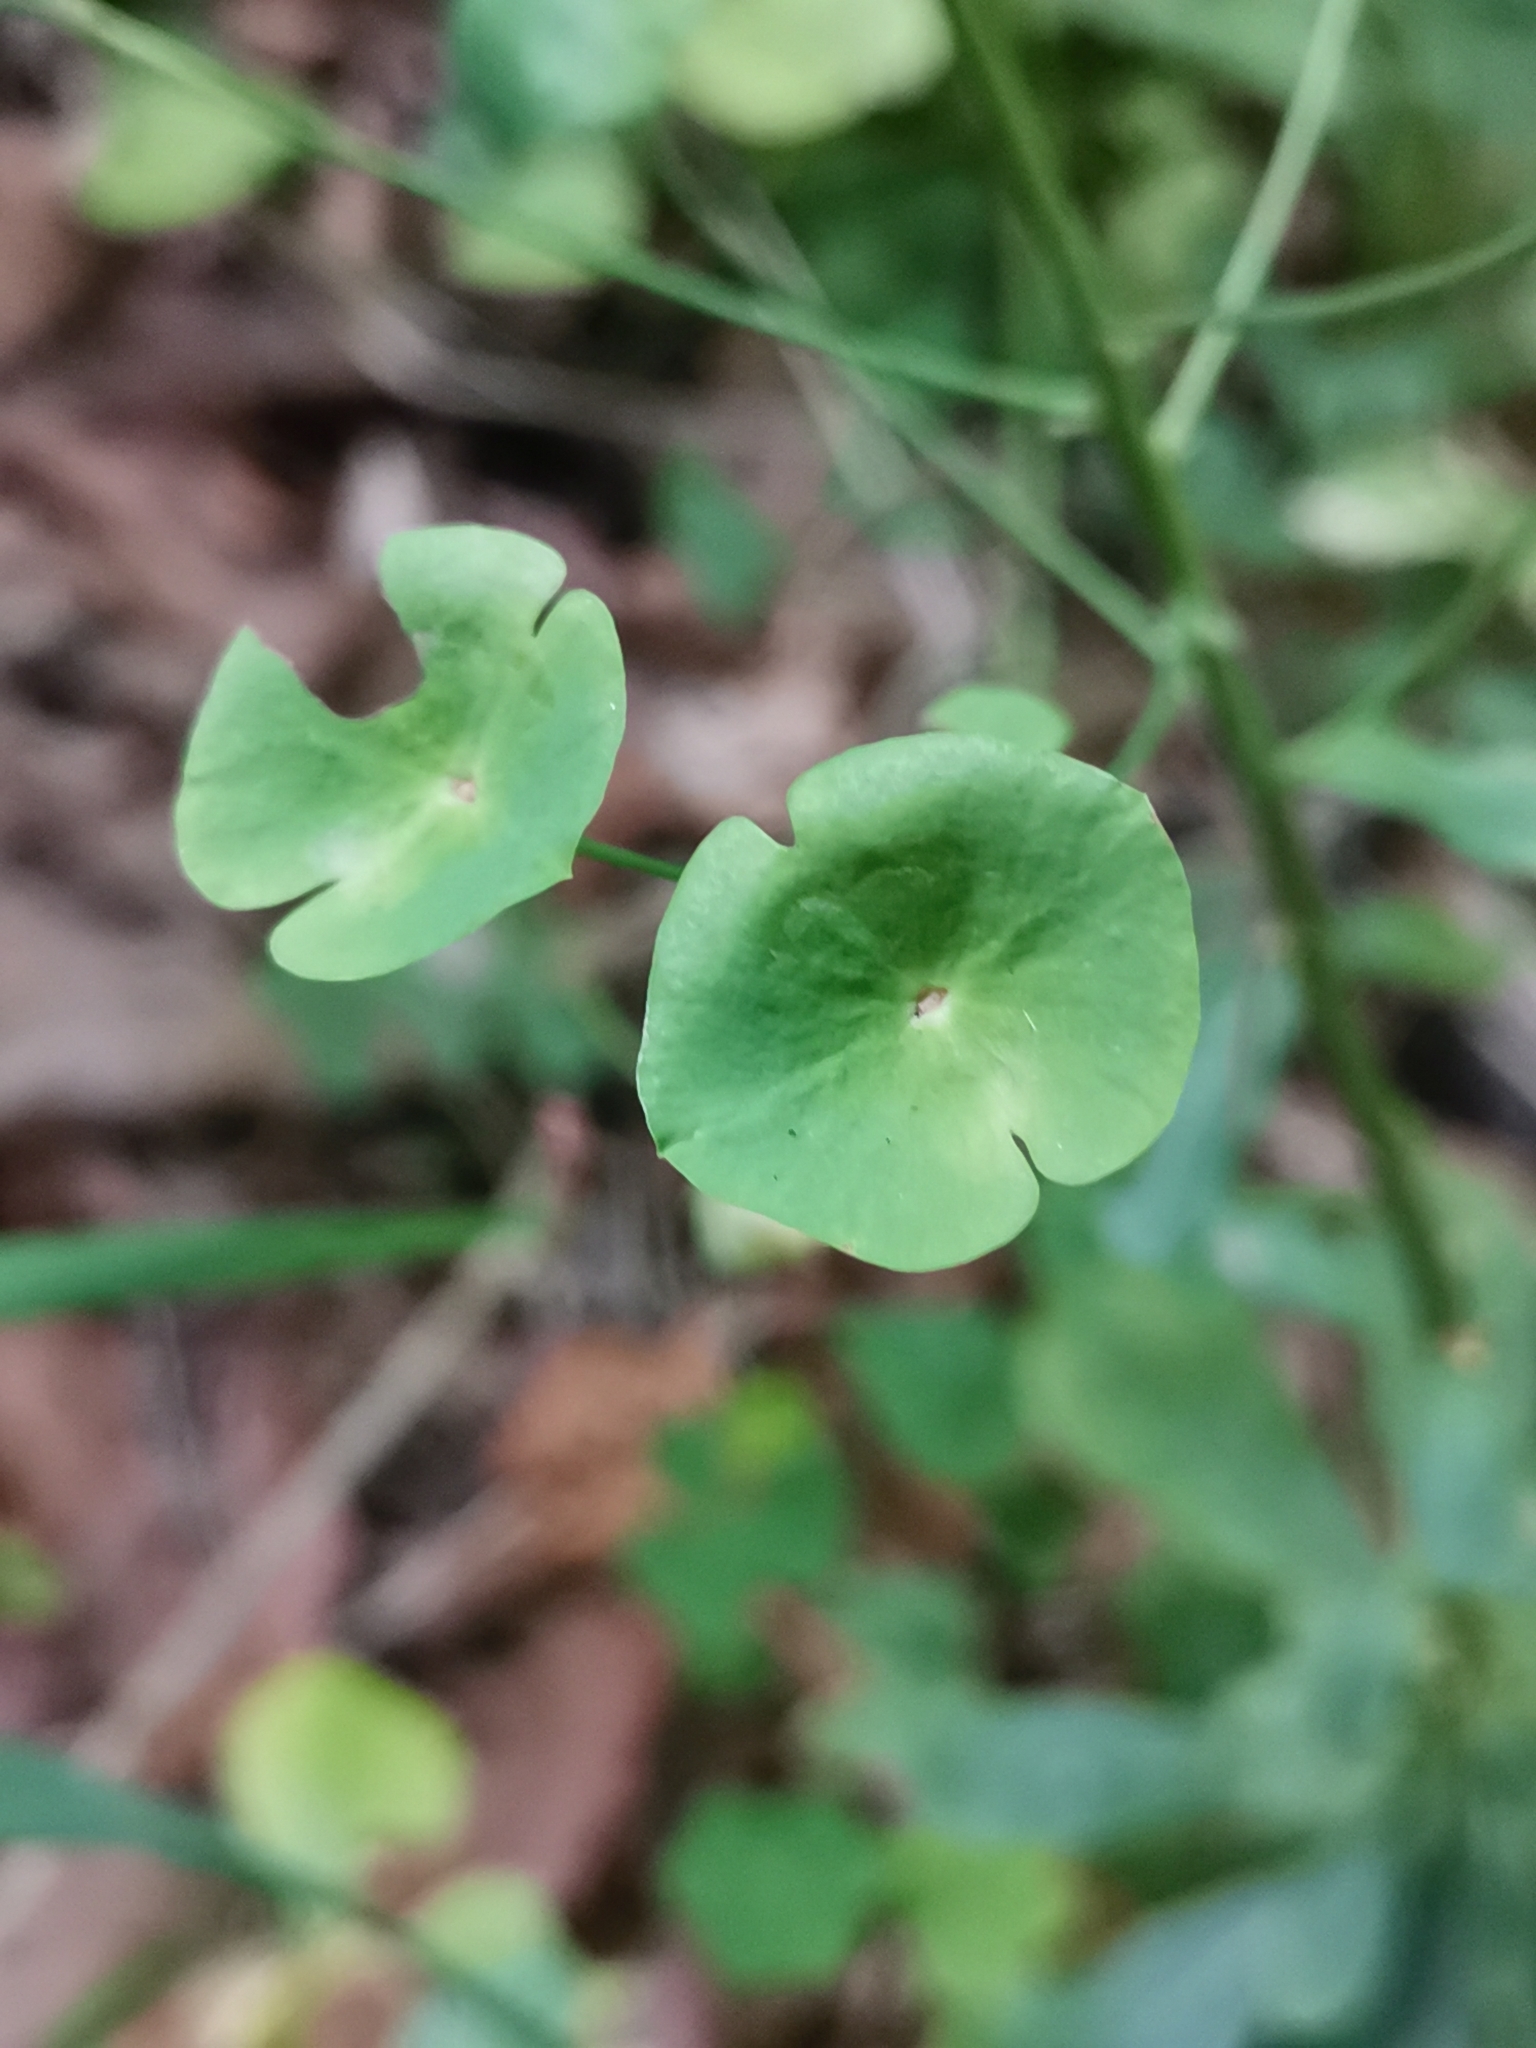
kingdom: Plantae
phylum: Tracheophyta
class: Magnoliopsida
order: Malpighiales
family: Euphorbiaceae
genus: Euphorbia
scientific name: Euphorbia amygdaloides
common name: Wood spurge
